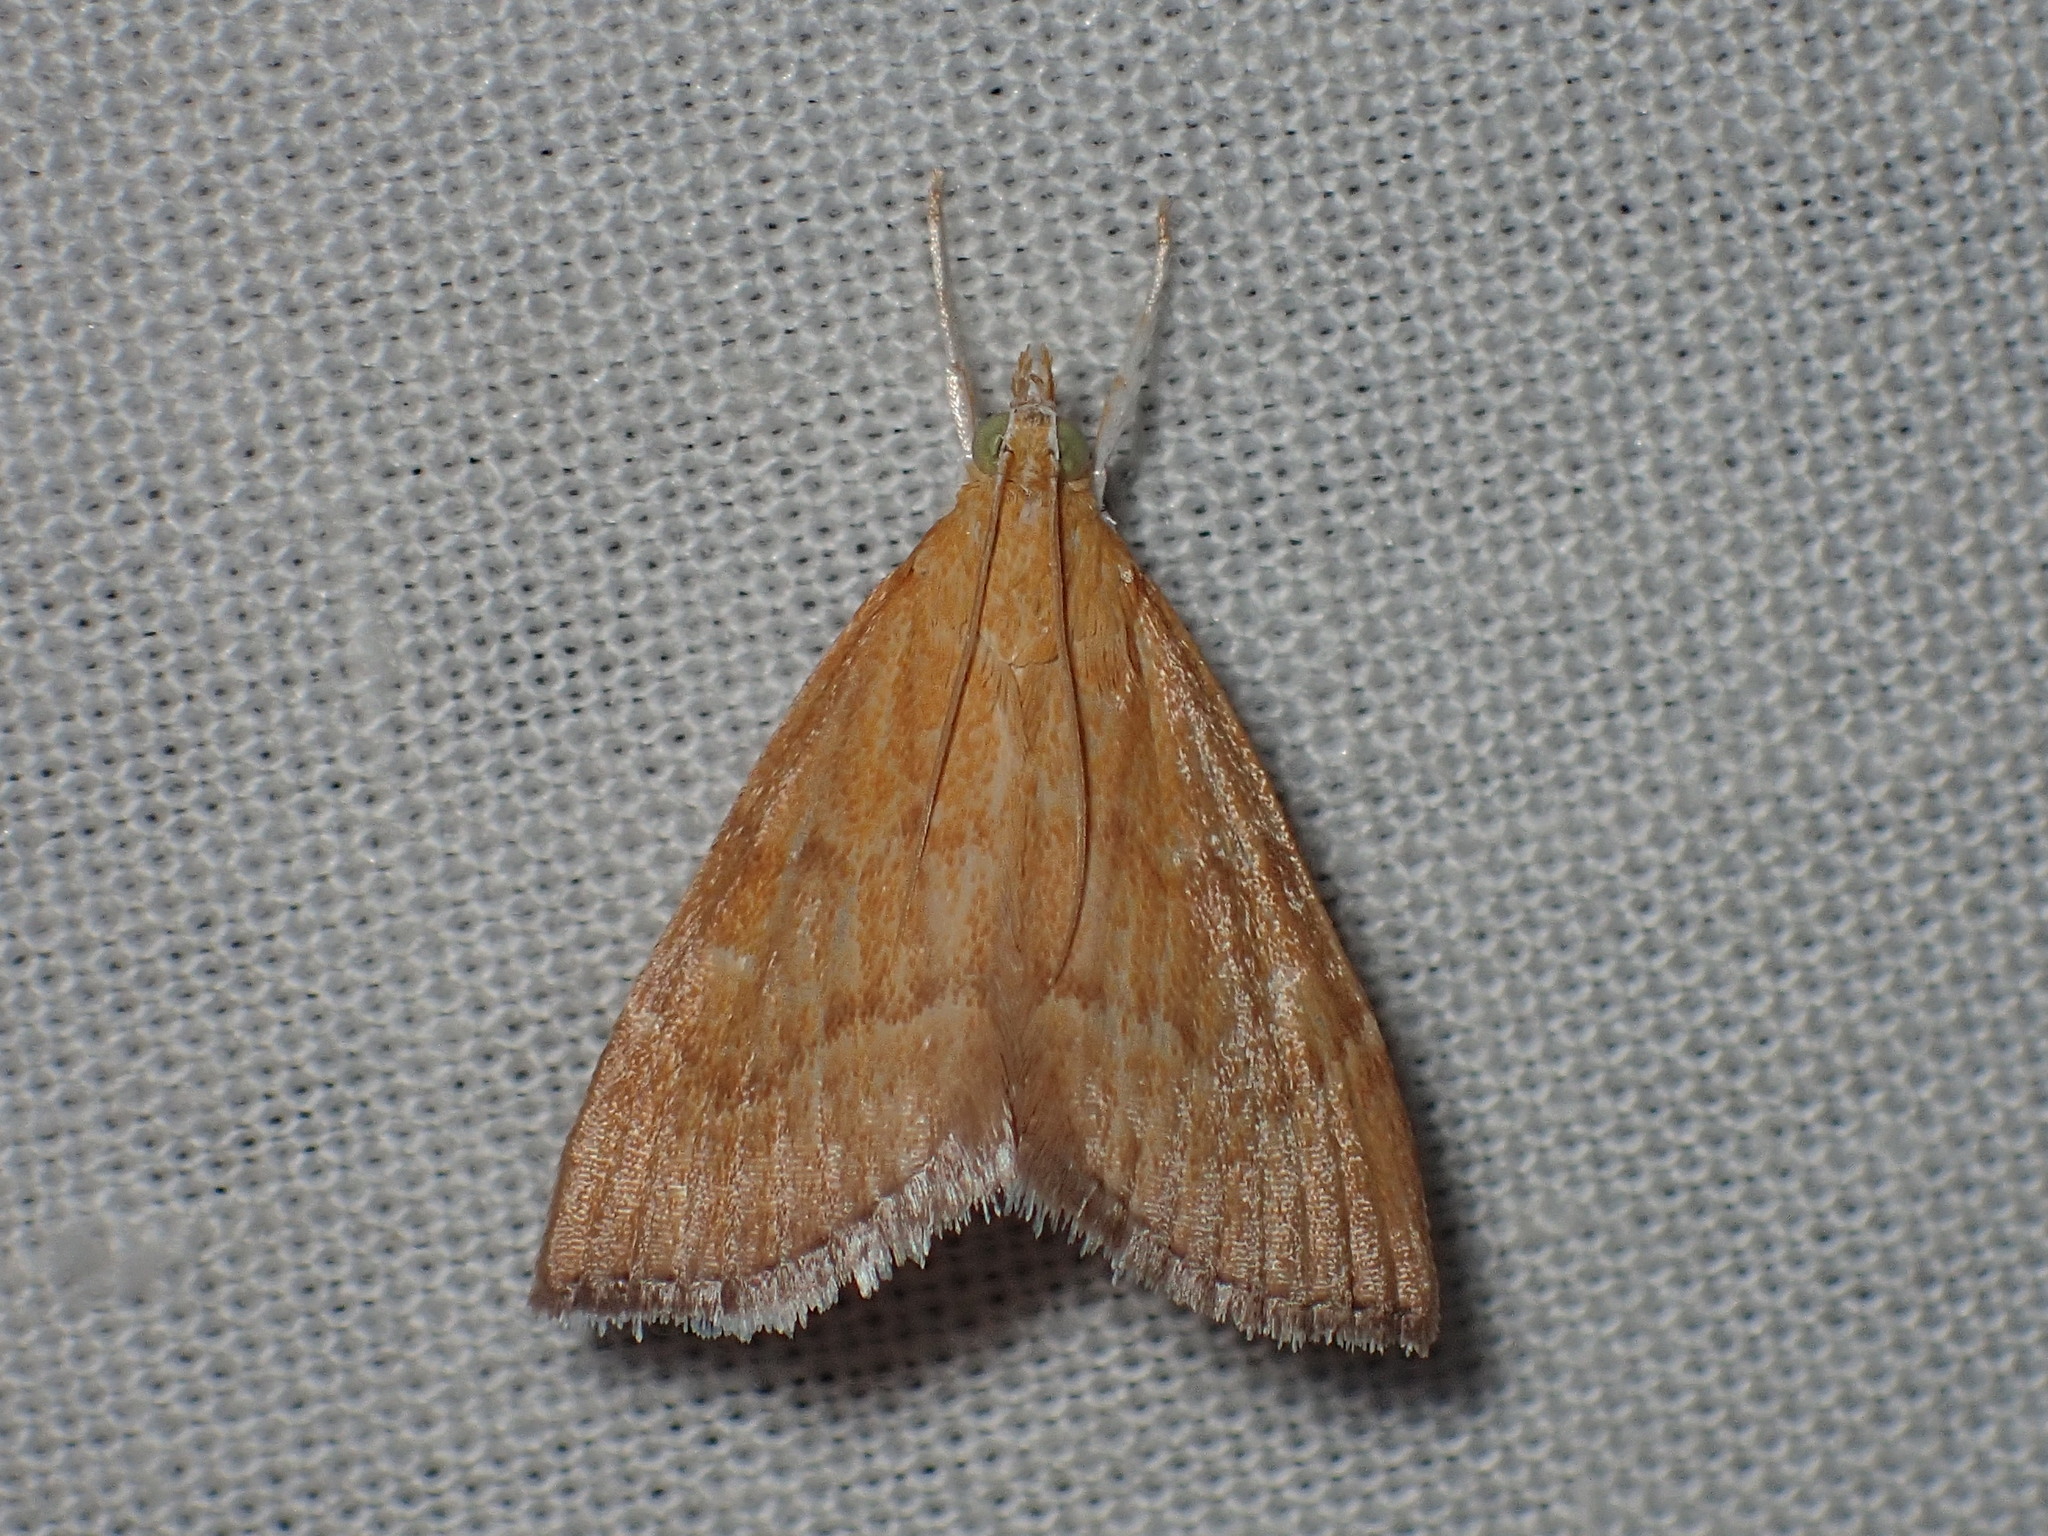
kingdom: Animalia
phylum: Arthropoda
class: Insecta
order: Lepidoptera
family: Crambidae
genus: Glaphyria
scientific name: Glaphyria invisalis
